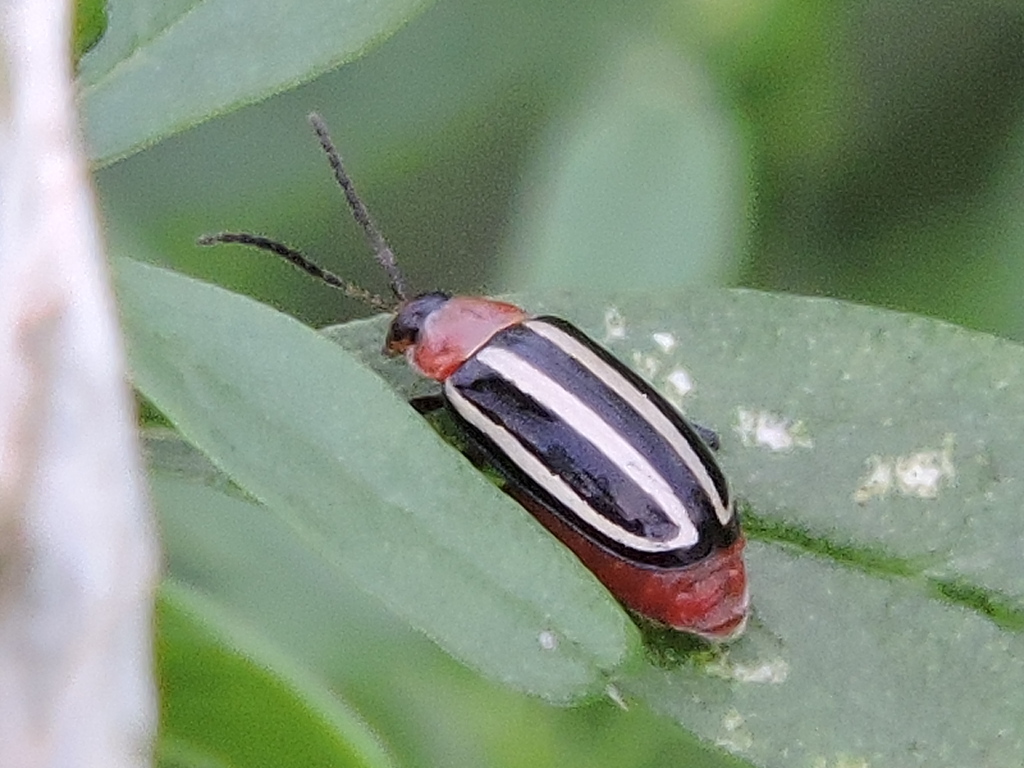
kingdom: Animalia
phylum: Arthropoda
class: Insecta
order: Coleoptera
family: Chrysomelidae
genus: Disonycha
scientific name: Disonycha glabrata
